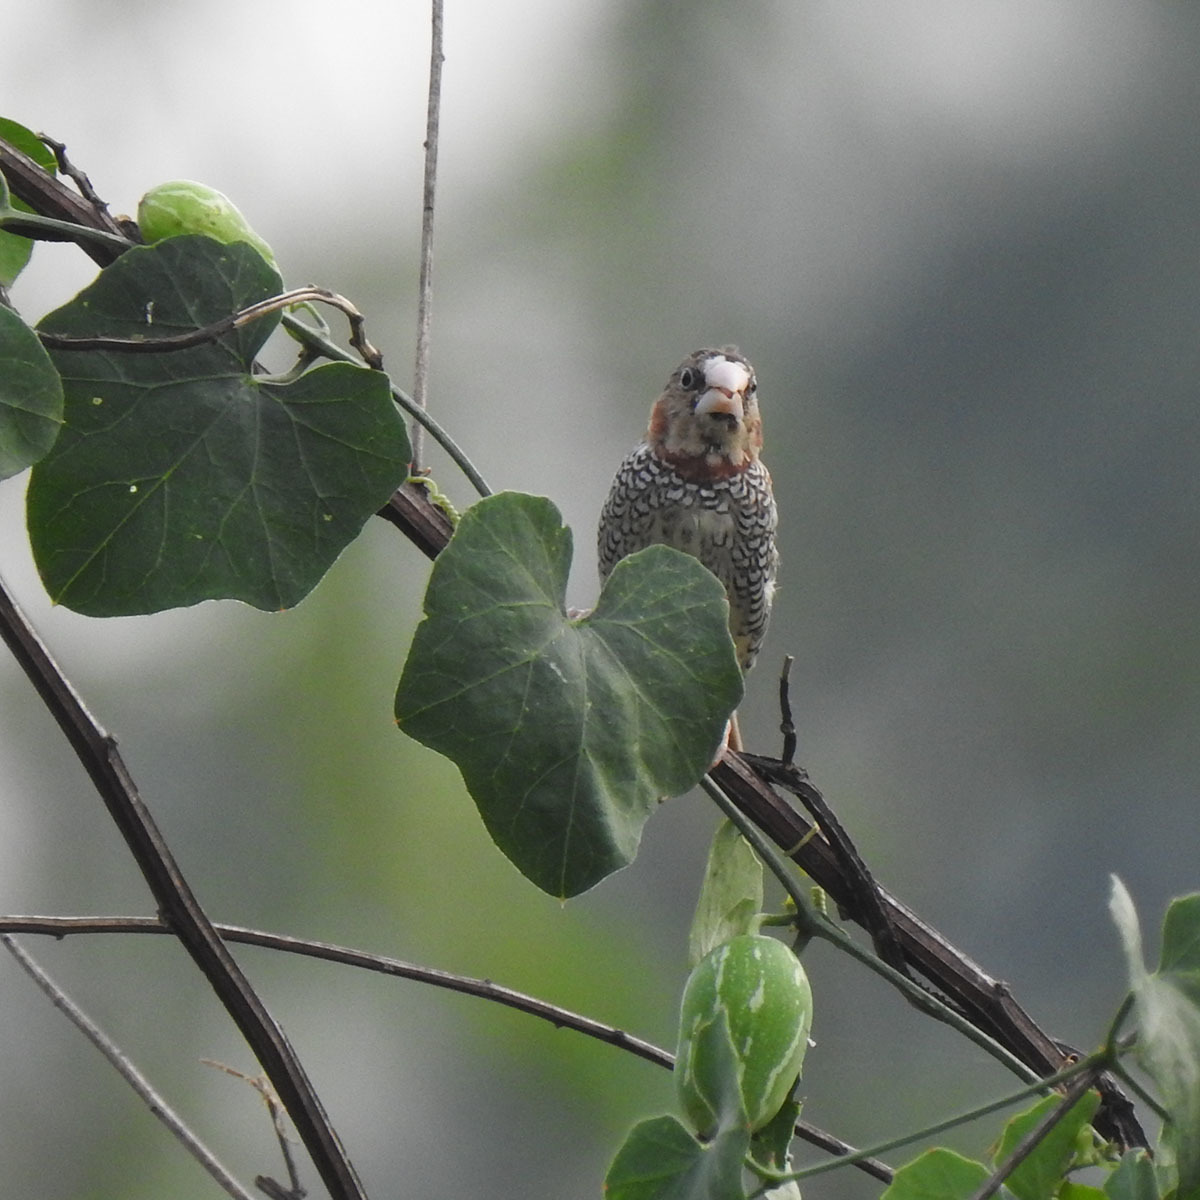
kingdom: Animalia
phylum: Chordata
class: Aves
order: Passeriformes
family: Estrildidae
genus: Lonchura
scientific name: Lonchura punctulata
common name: Scaly-breasted munia
